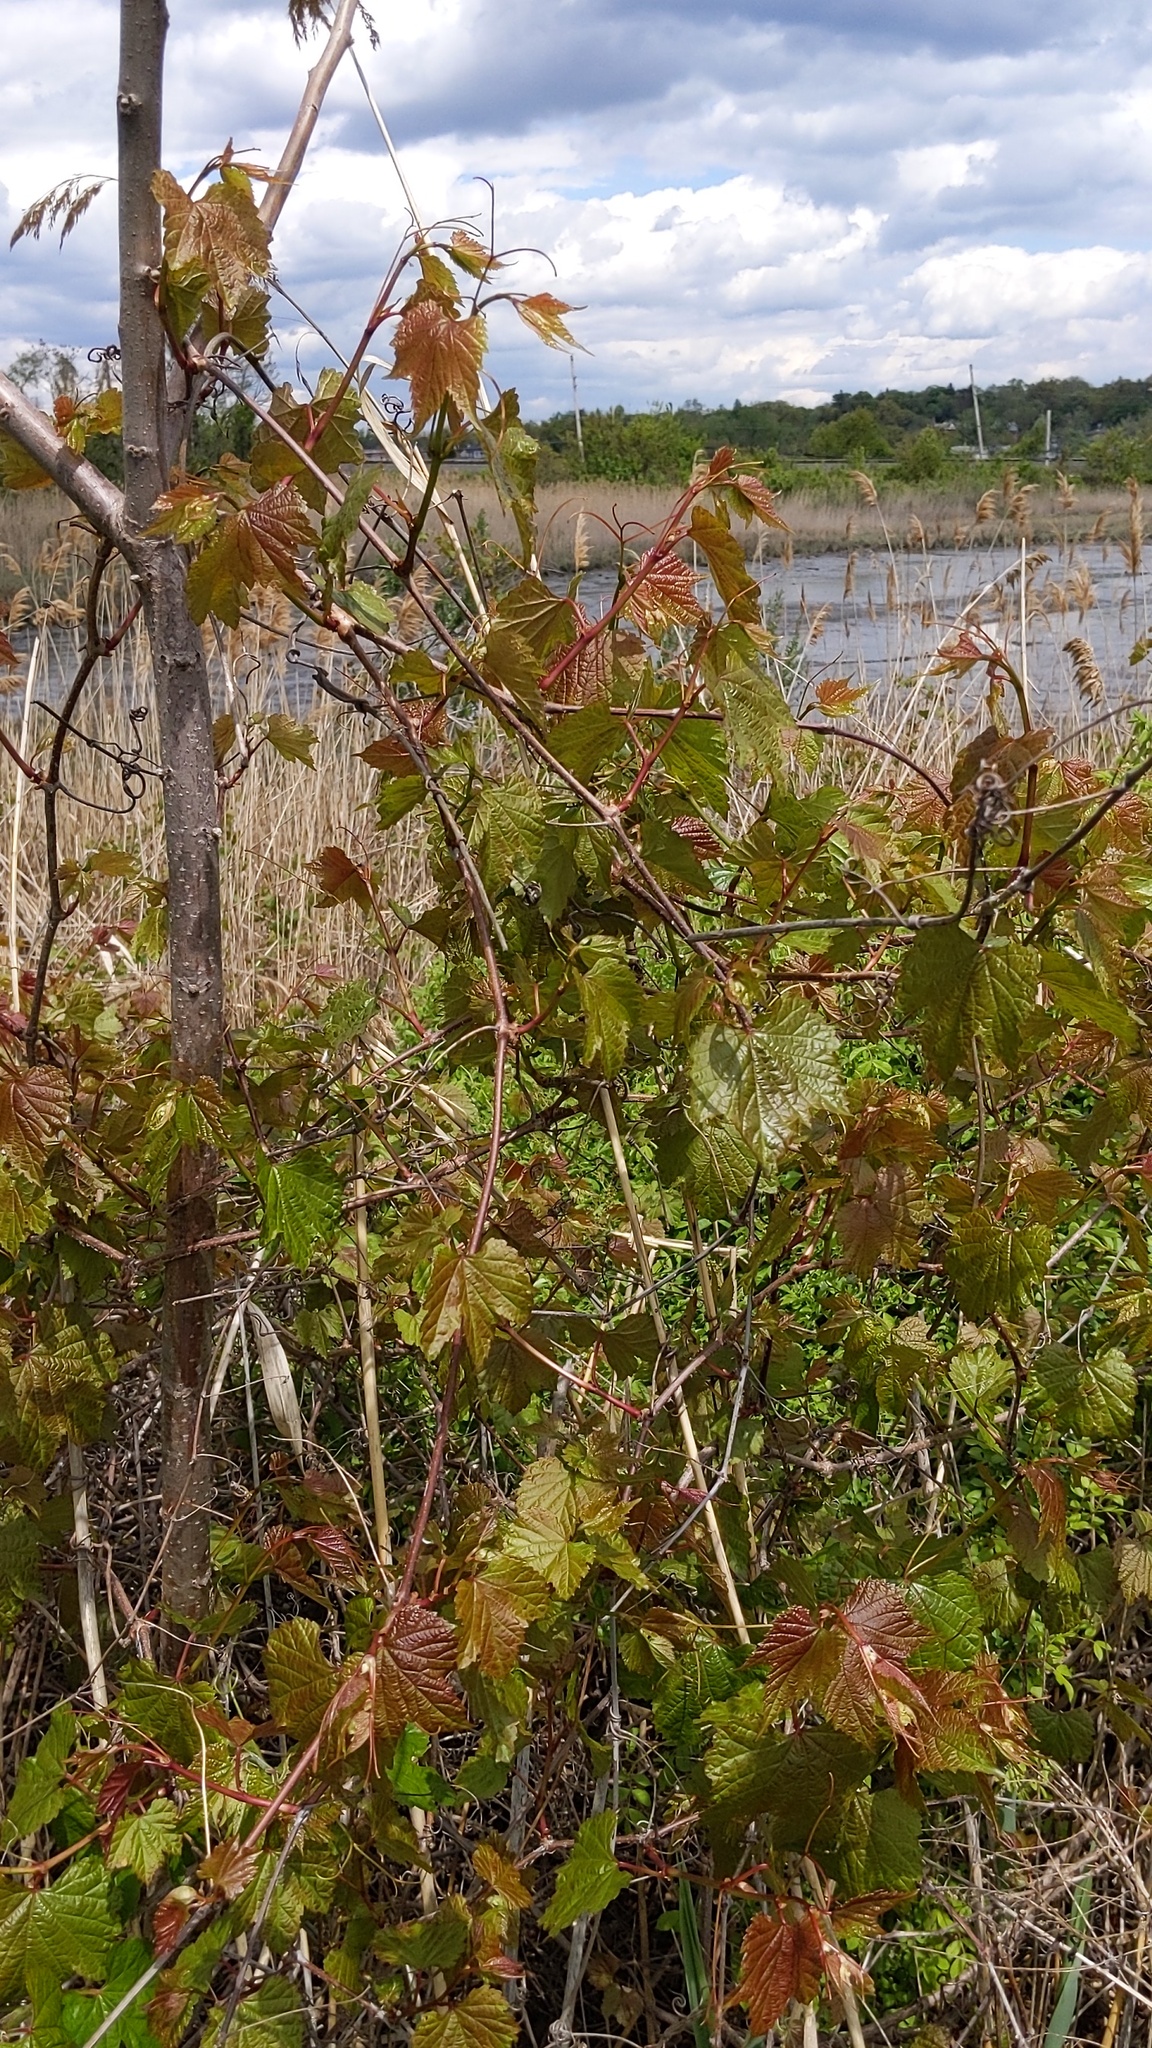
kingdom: Plantae
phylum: Tracheophyta
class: Magnoliopsida
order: Vitales
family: Vitaceae
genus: Ampelopsis
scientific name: Ampelopsis glandulosa
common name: Amur peppervine
